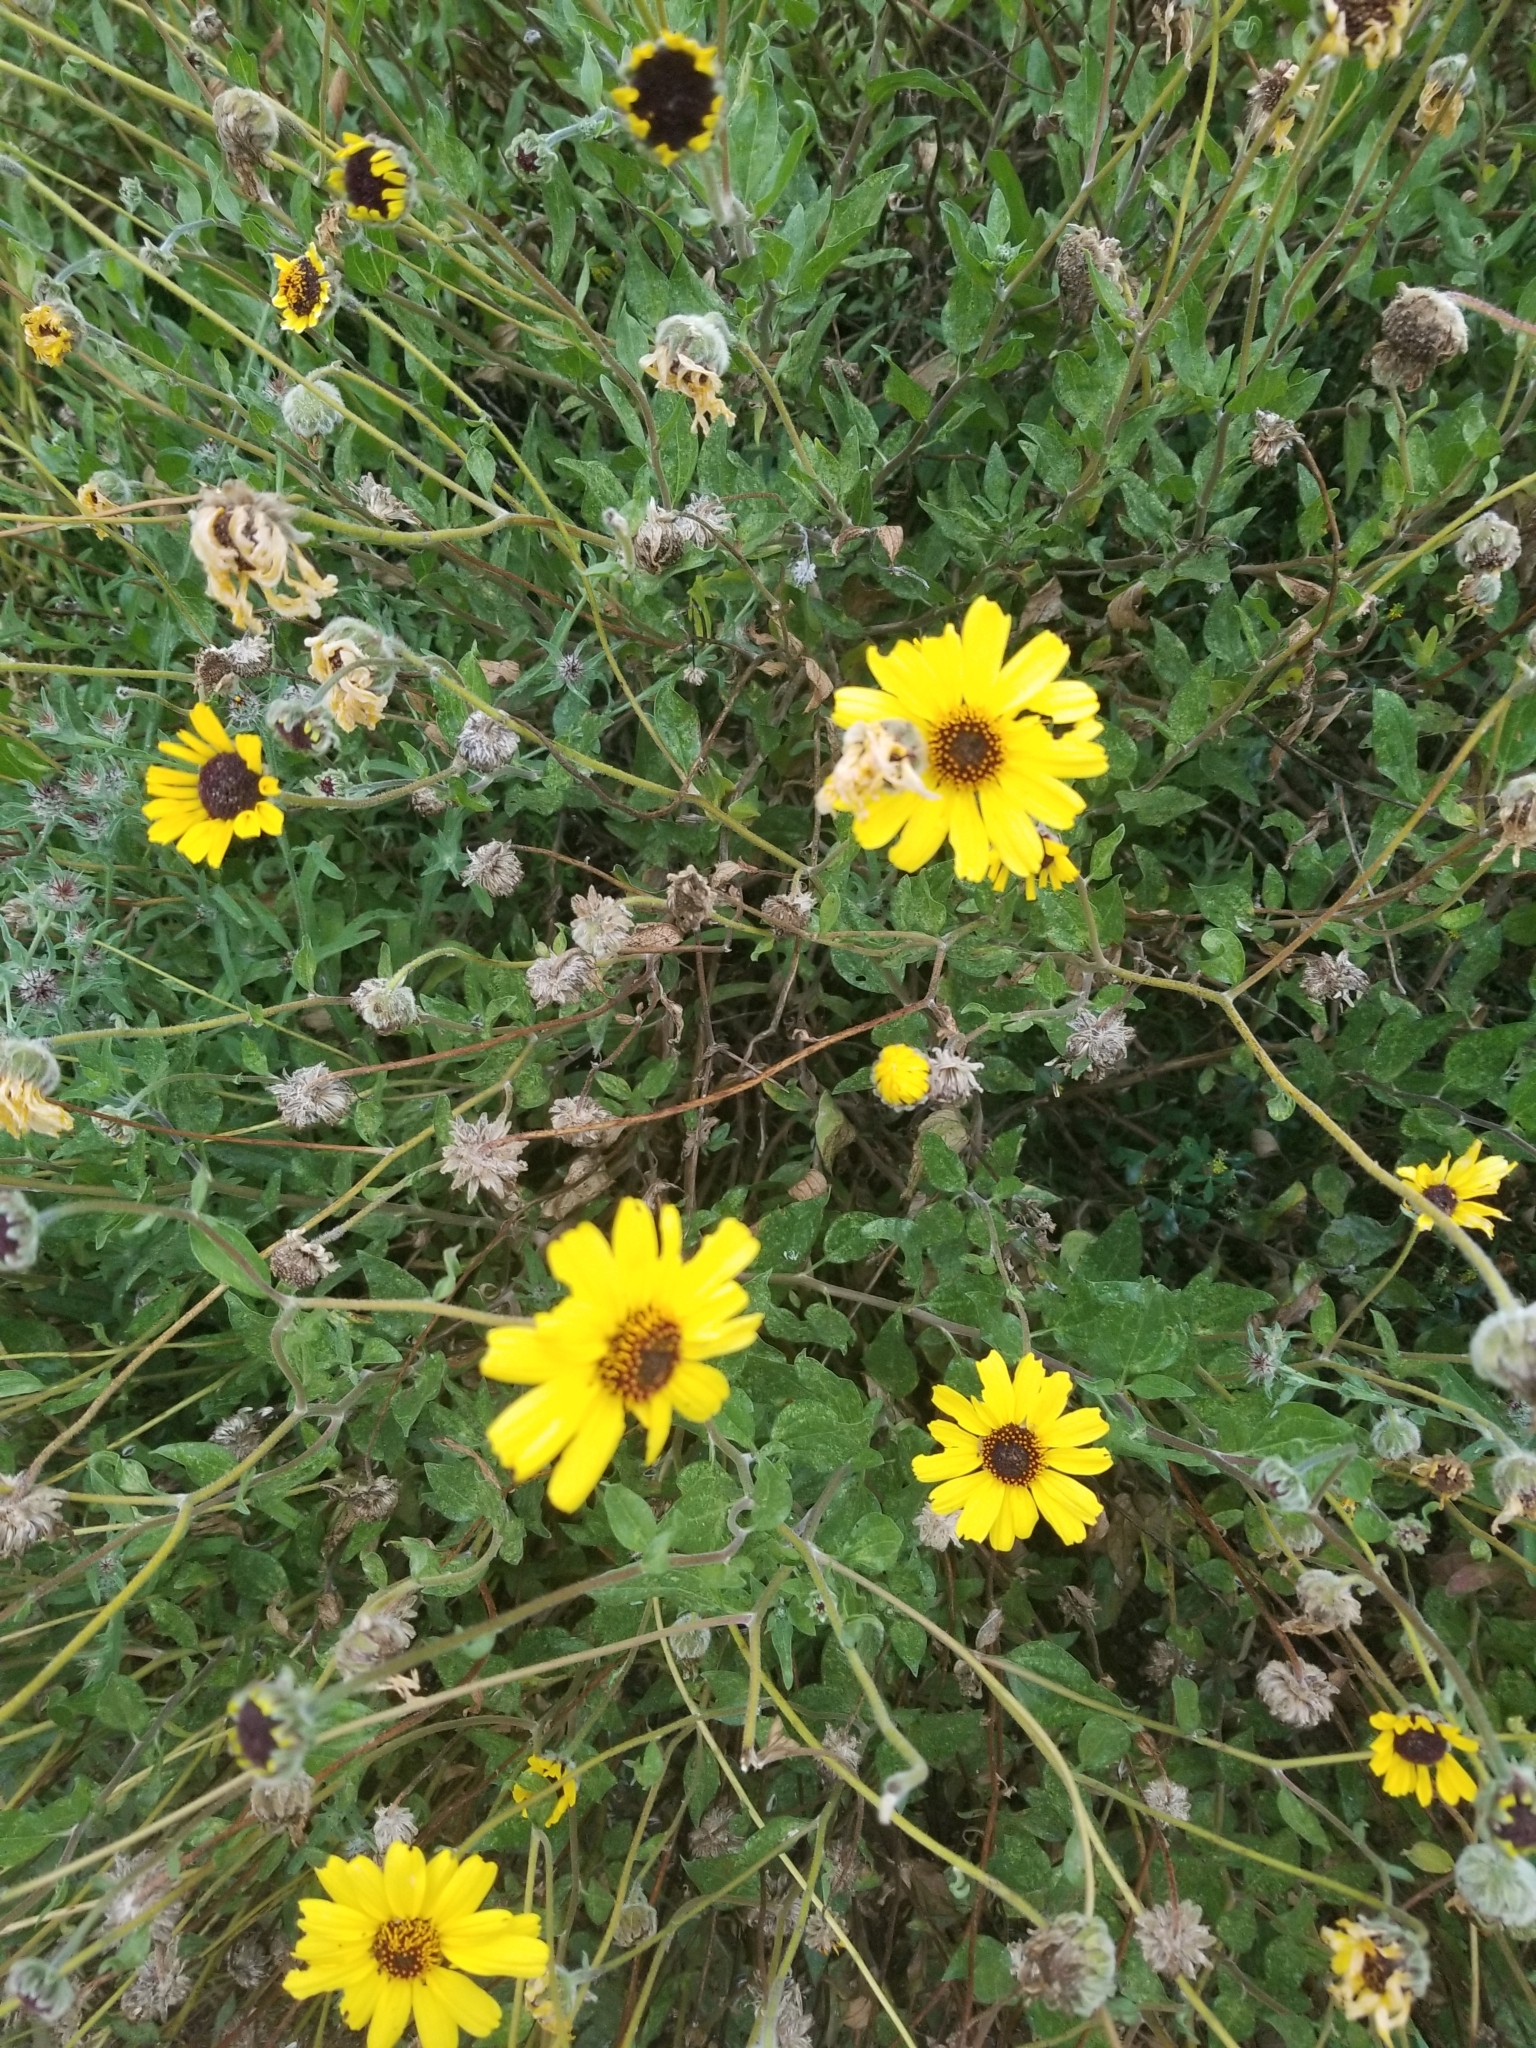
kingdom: Plantae
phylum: Tracheophyta
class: Magnoliopsida
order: Asterales
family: Asteraceae
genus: Encelia
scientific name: Encelia californica
